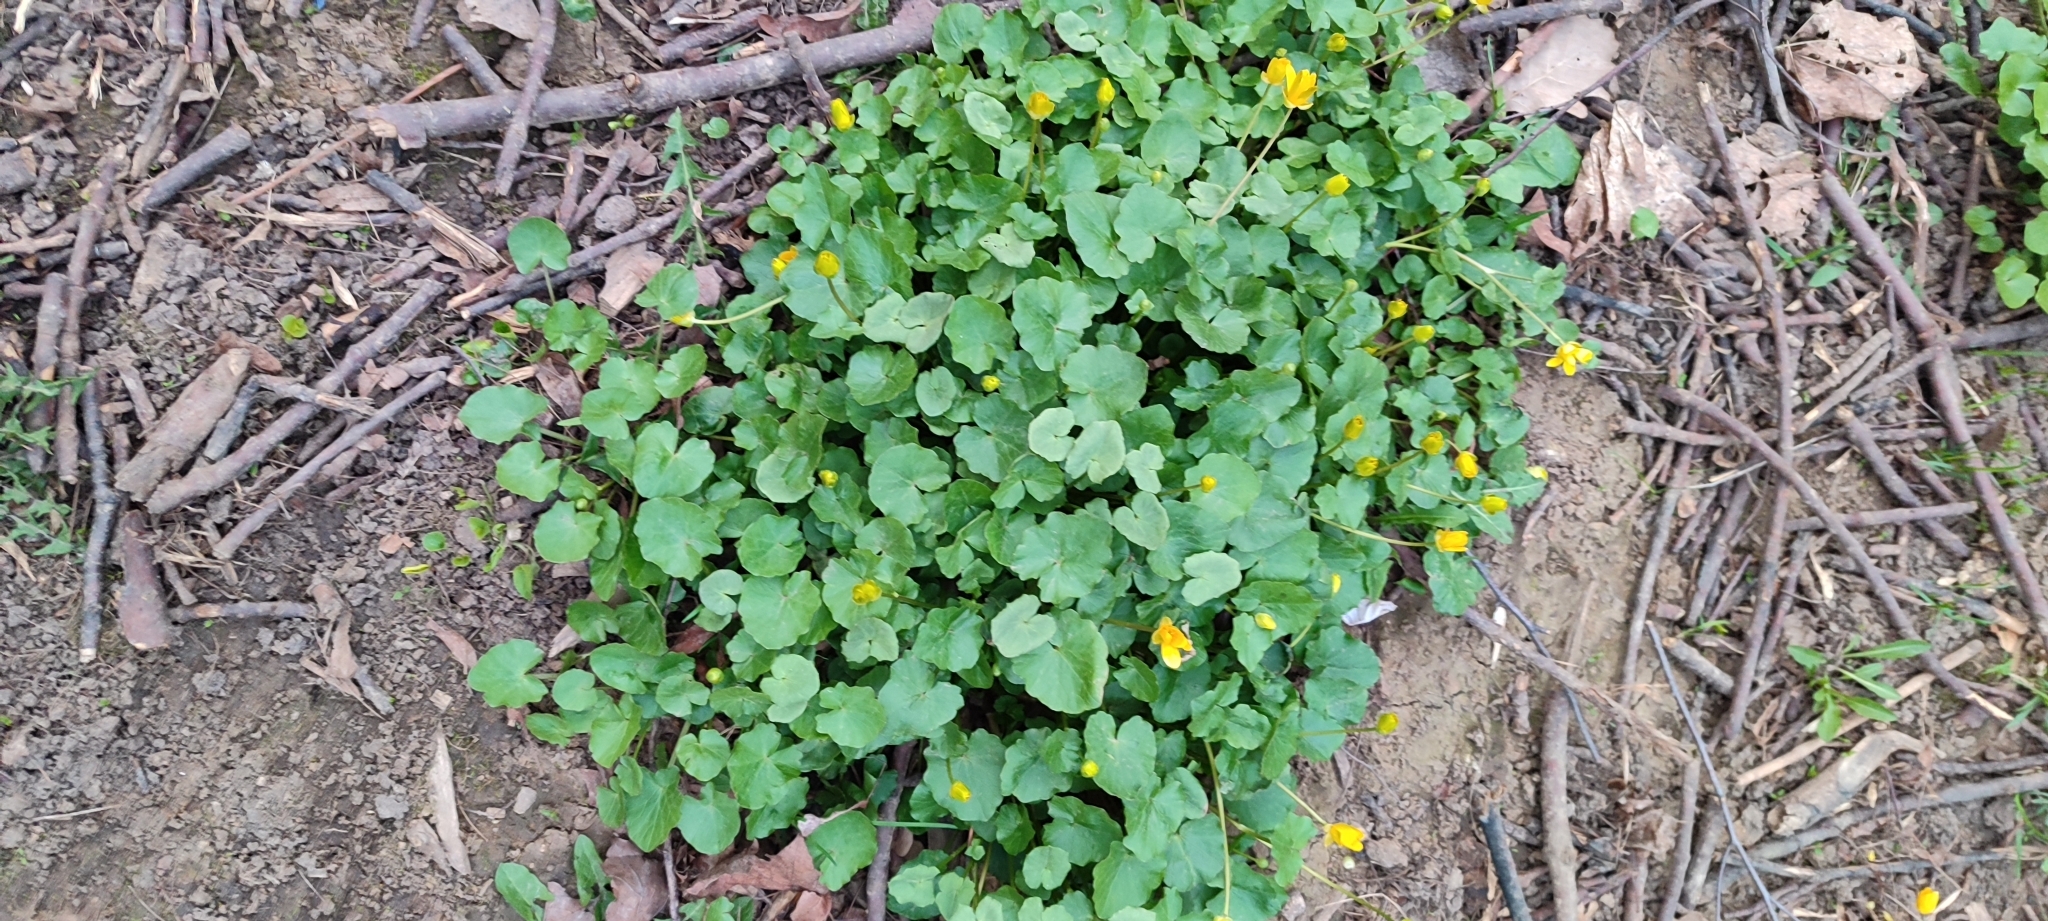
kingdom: Plantae
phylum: Tracheophyta
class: Magnoliopsida
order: Ranunculales
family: Ranunculaceae
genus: Ficaria
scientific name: Ficaria verna
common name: Lesser celandine
